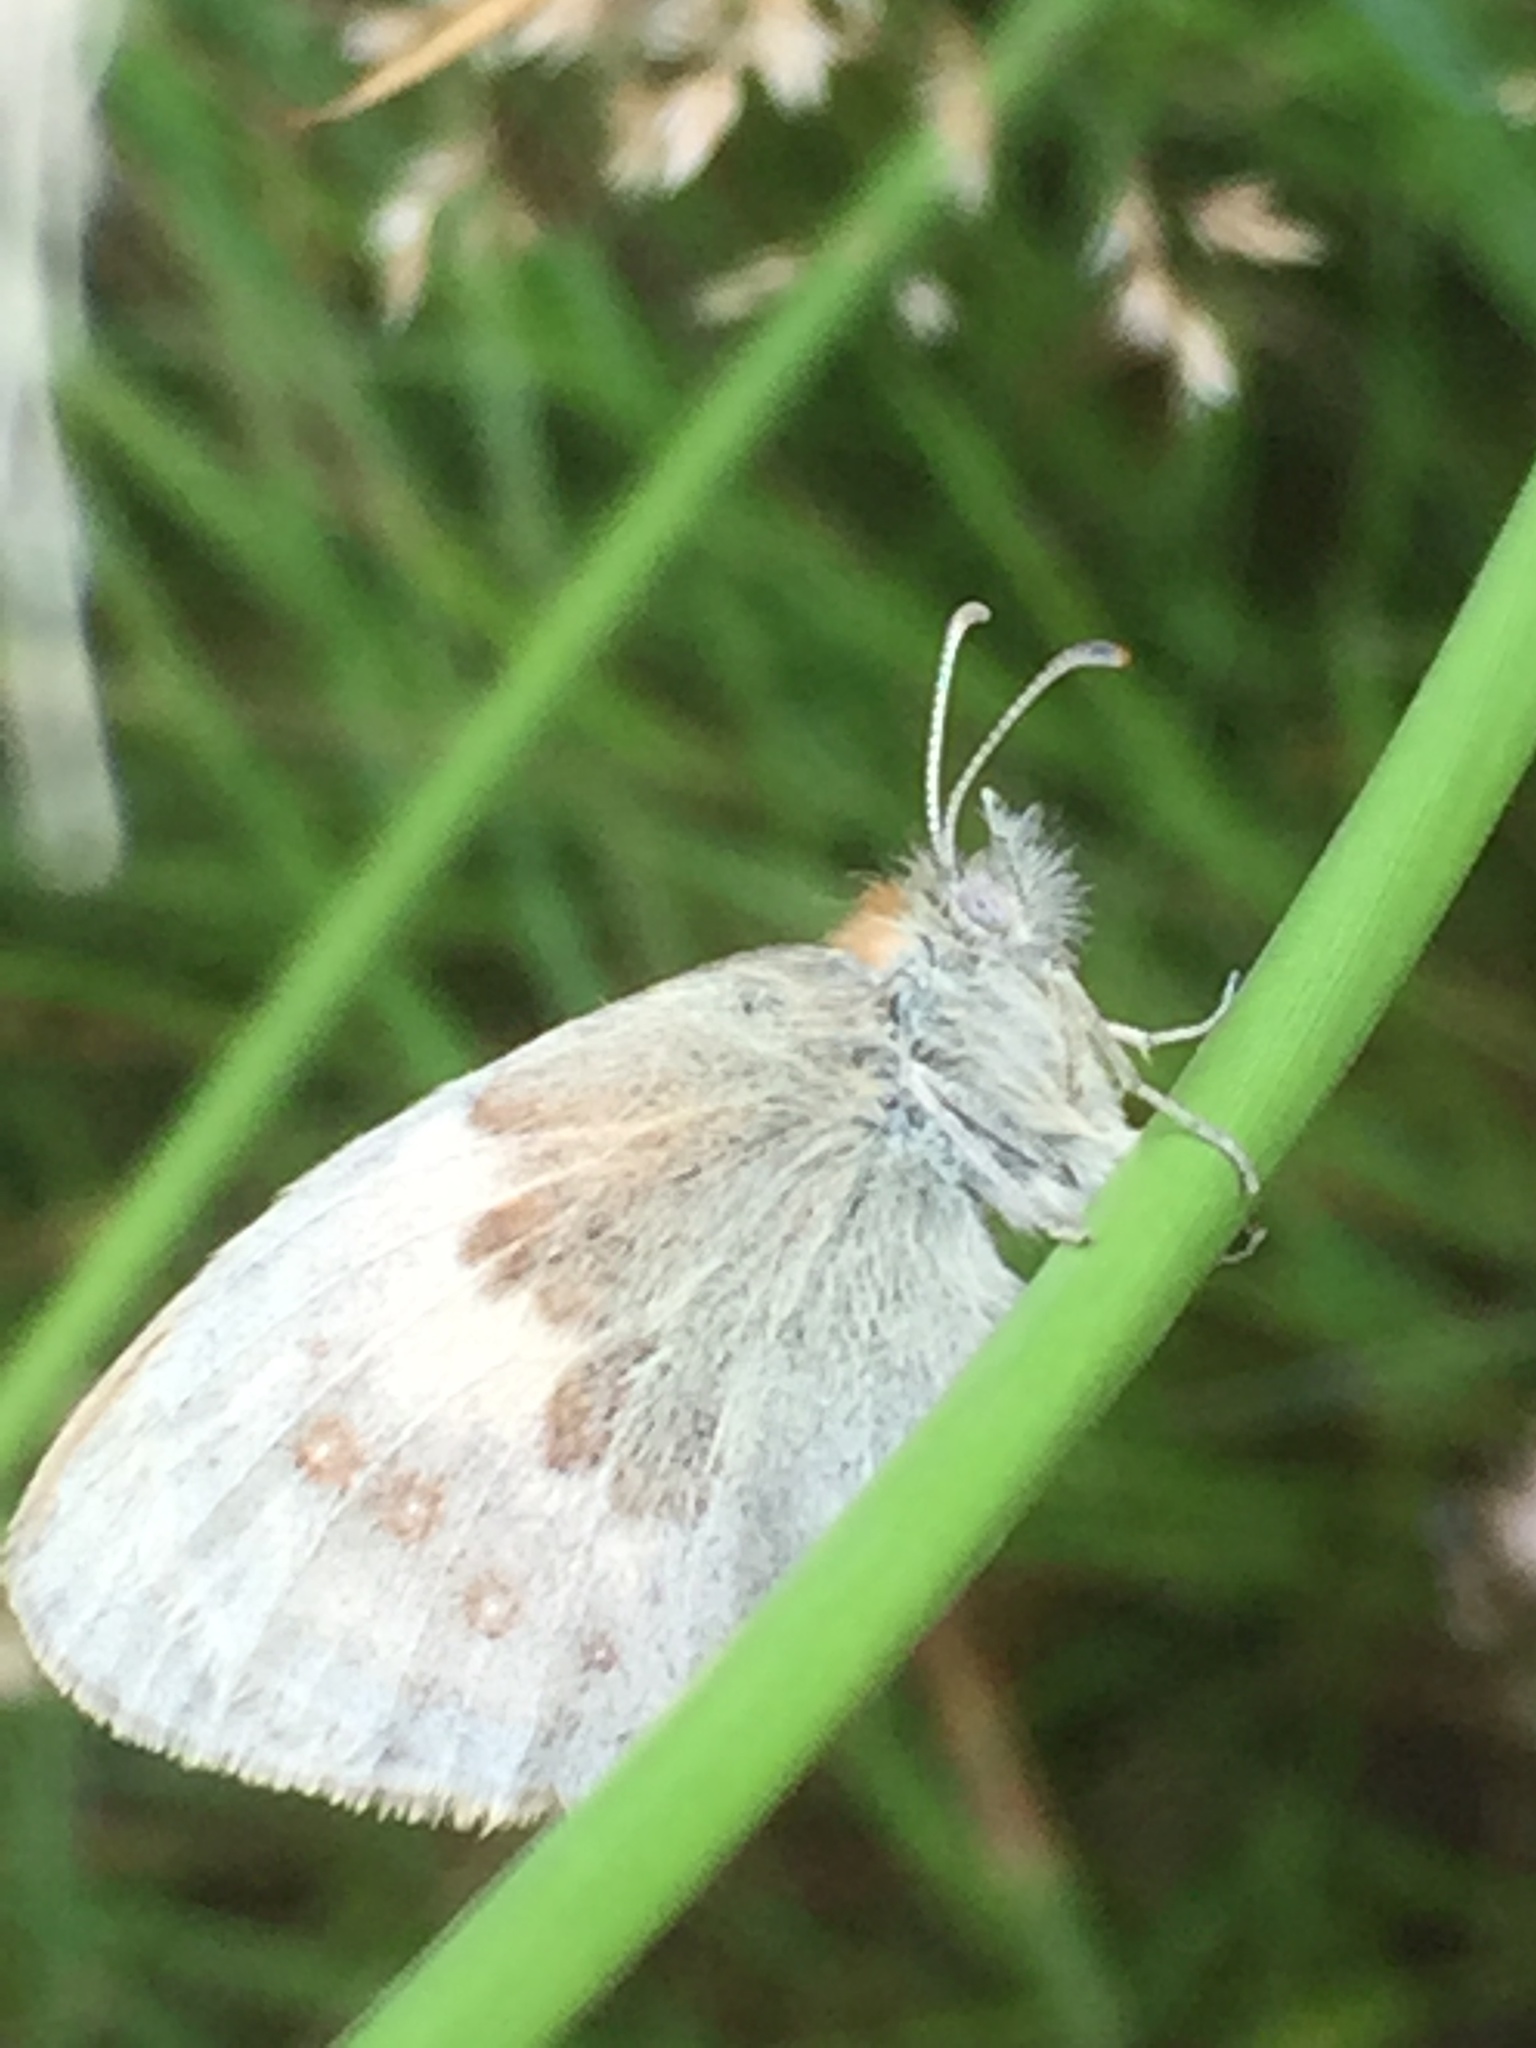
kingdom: Animalia
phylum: Arthropoda
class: Insecta
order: Lepidoptera
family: Nymphalidae
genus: Coenonympha
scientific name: Coenonympha pamphilus
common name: Small heath
